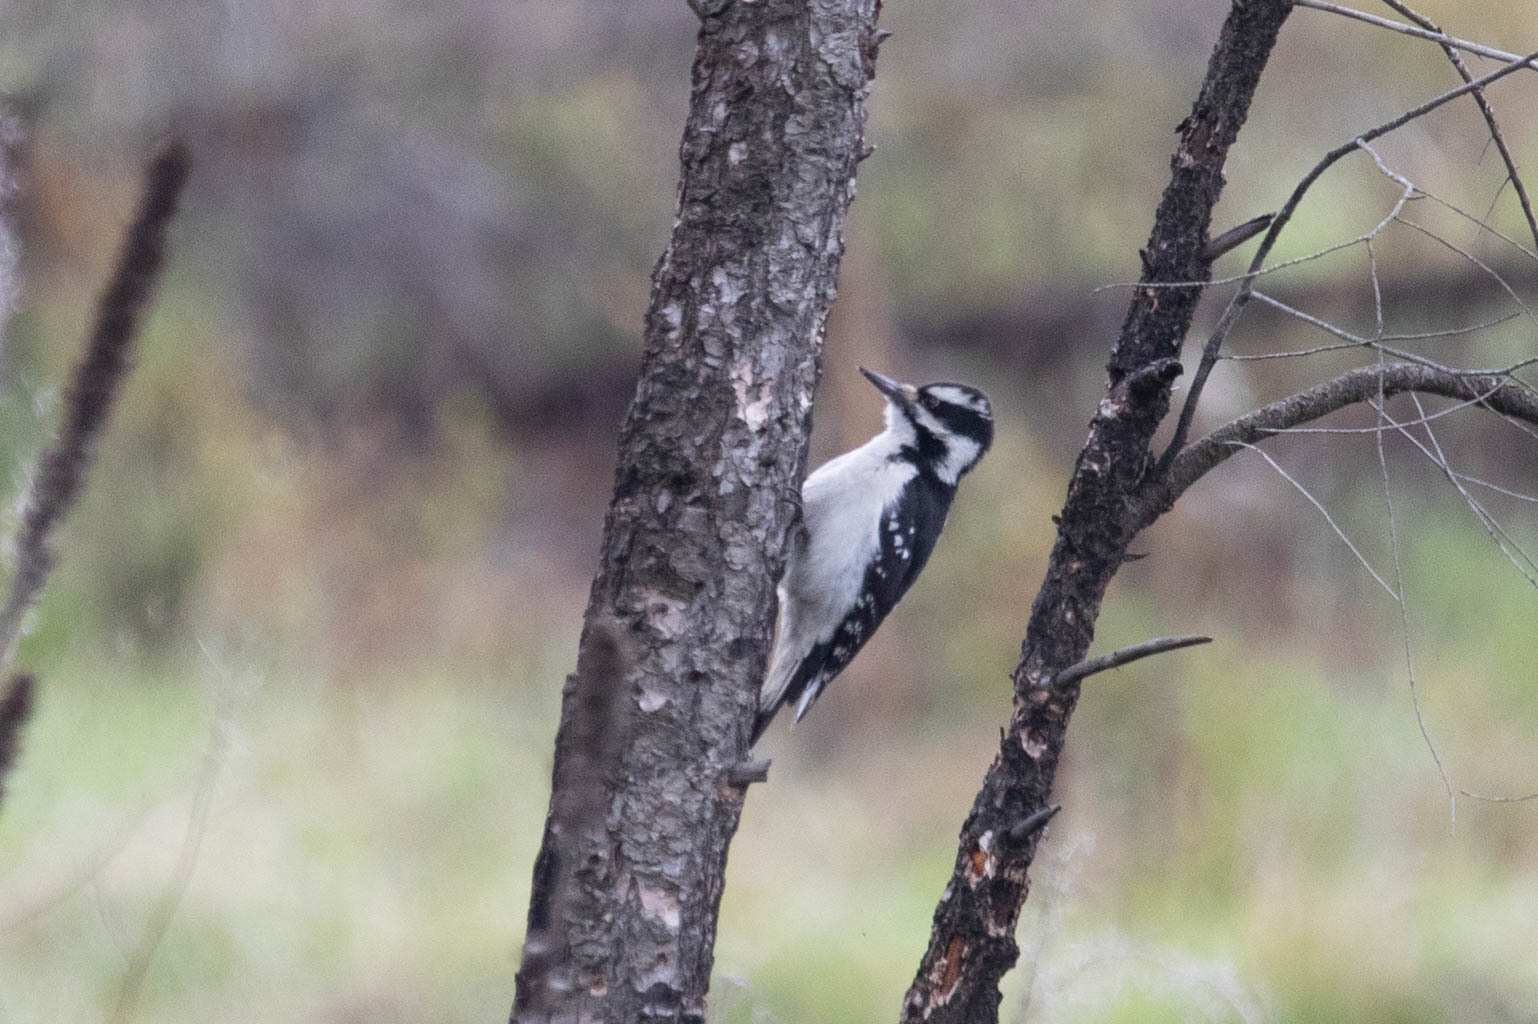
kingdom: Animalia
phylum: Chordata
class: Aves
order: Piciformes
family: Picidae
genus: Leuconotopicus
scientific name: Leuconotopicus villosus
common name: Hairy woodpecker
